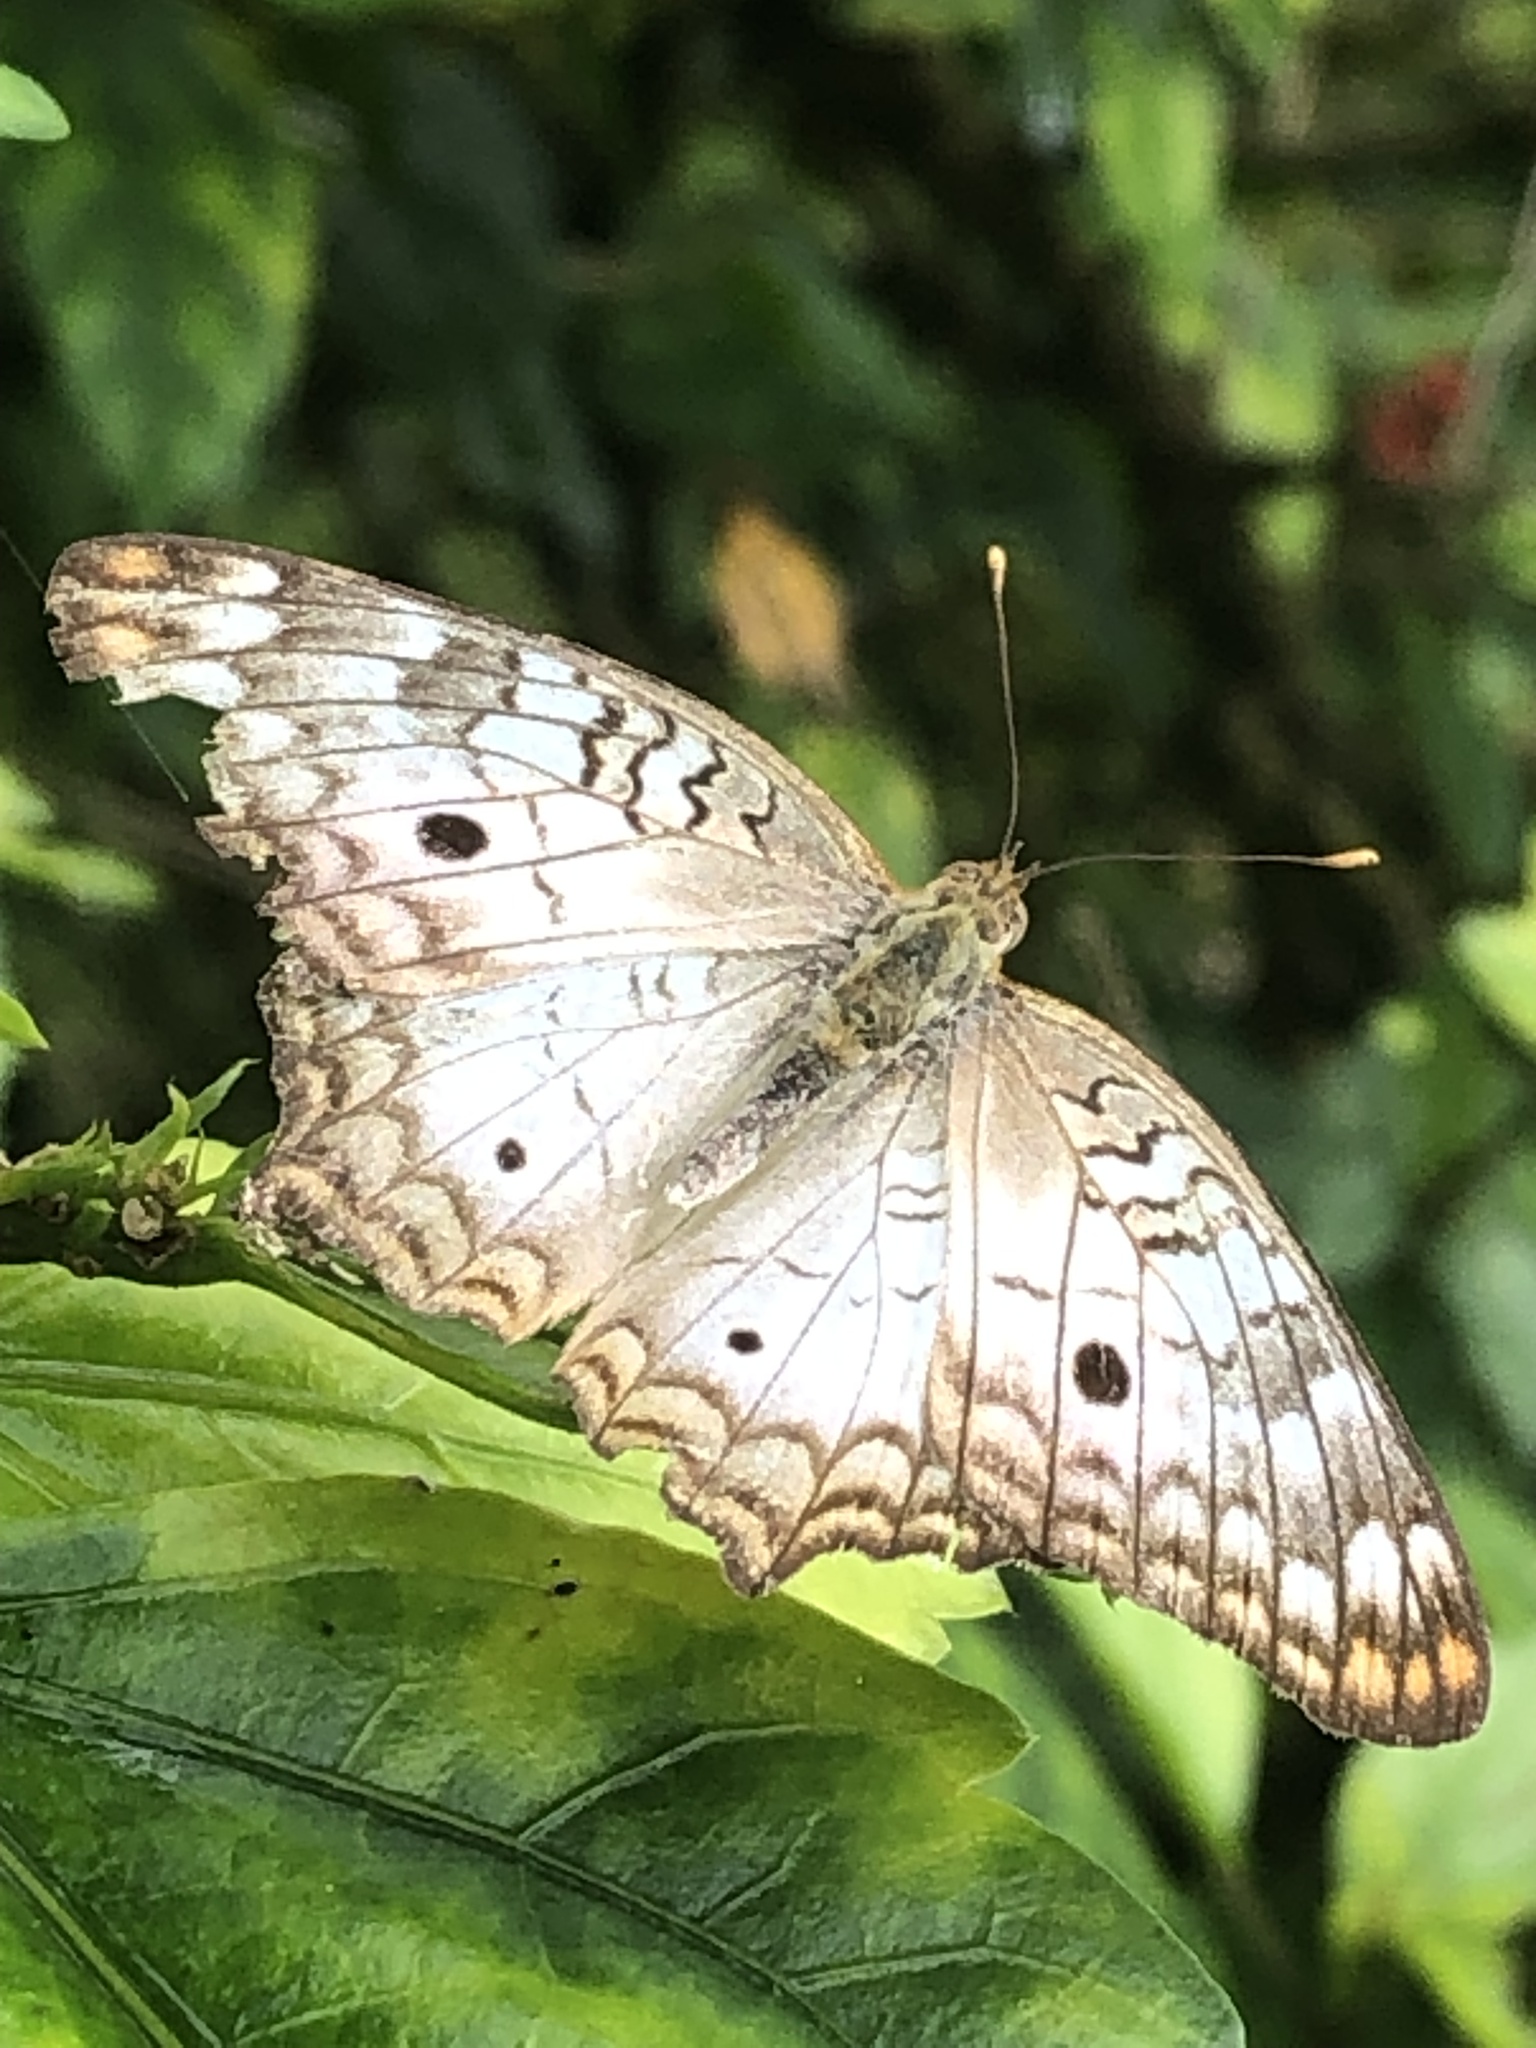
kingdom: Animalia
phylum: Arthropoda
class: Insecta
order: Lepidoptera
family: Nymphalidae
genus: Anartia
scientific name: Anartia jatrophae
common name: White peacock
